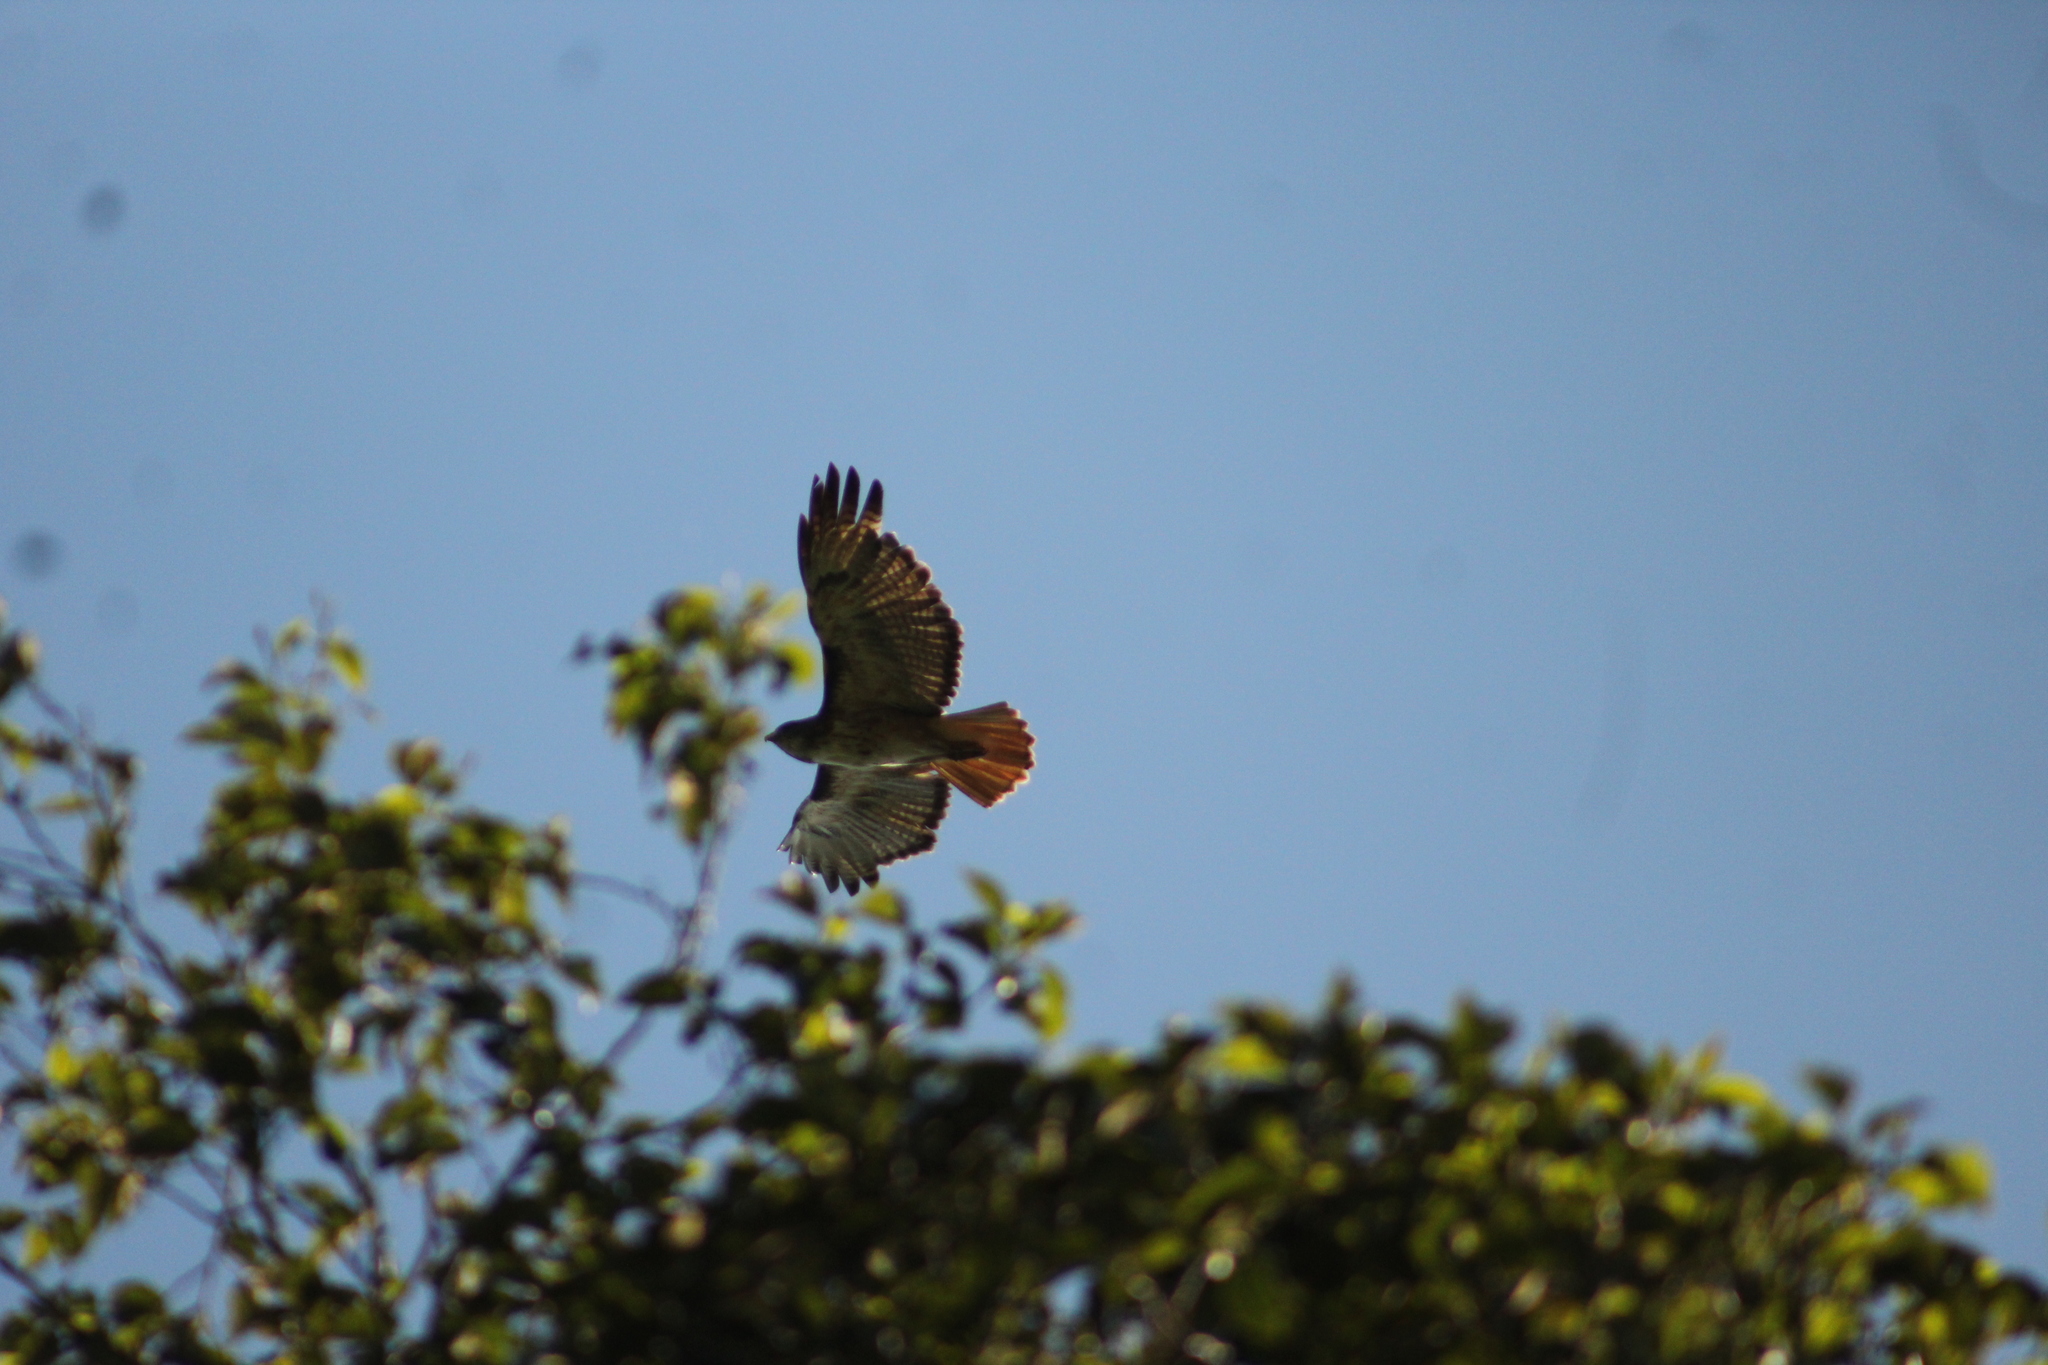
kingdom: Animalia
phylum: Chordata
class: Aves
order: Accipitriformes
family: Accipitridae
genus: Buteo
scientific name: Buteo jamaicensis
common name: Red-tailed hawk
